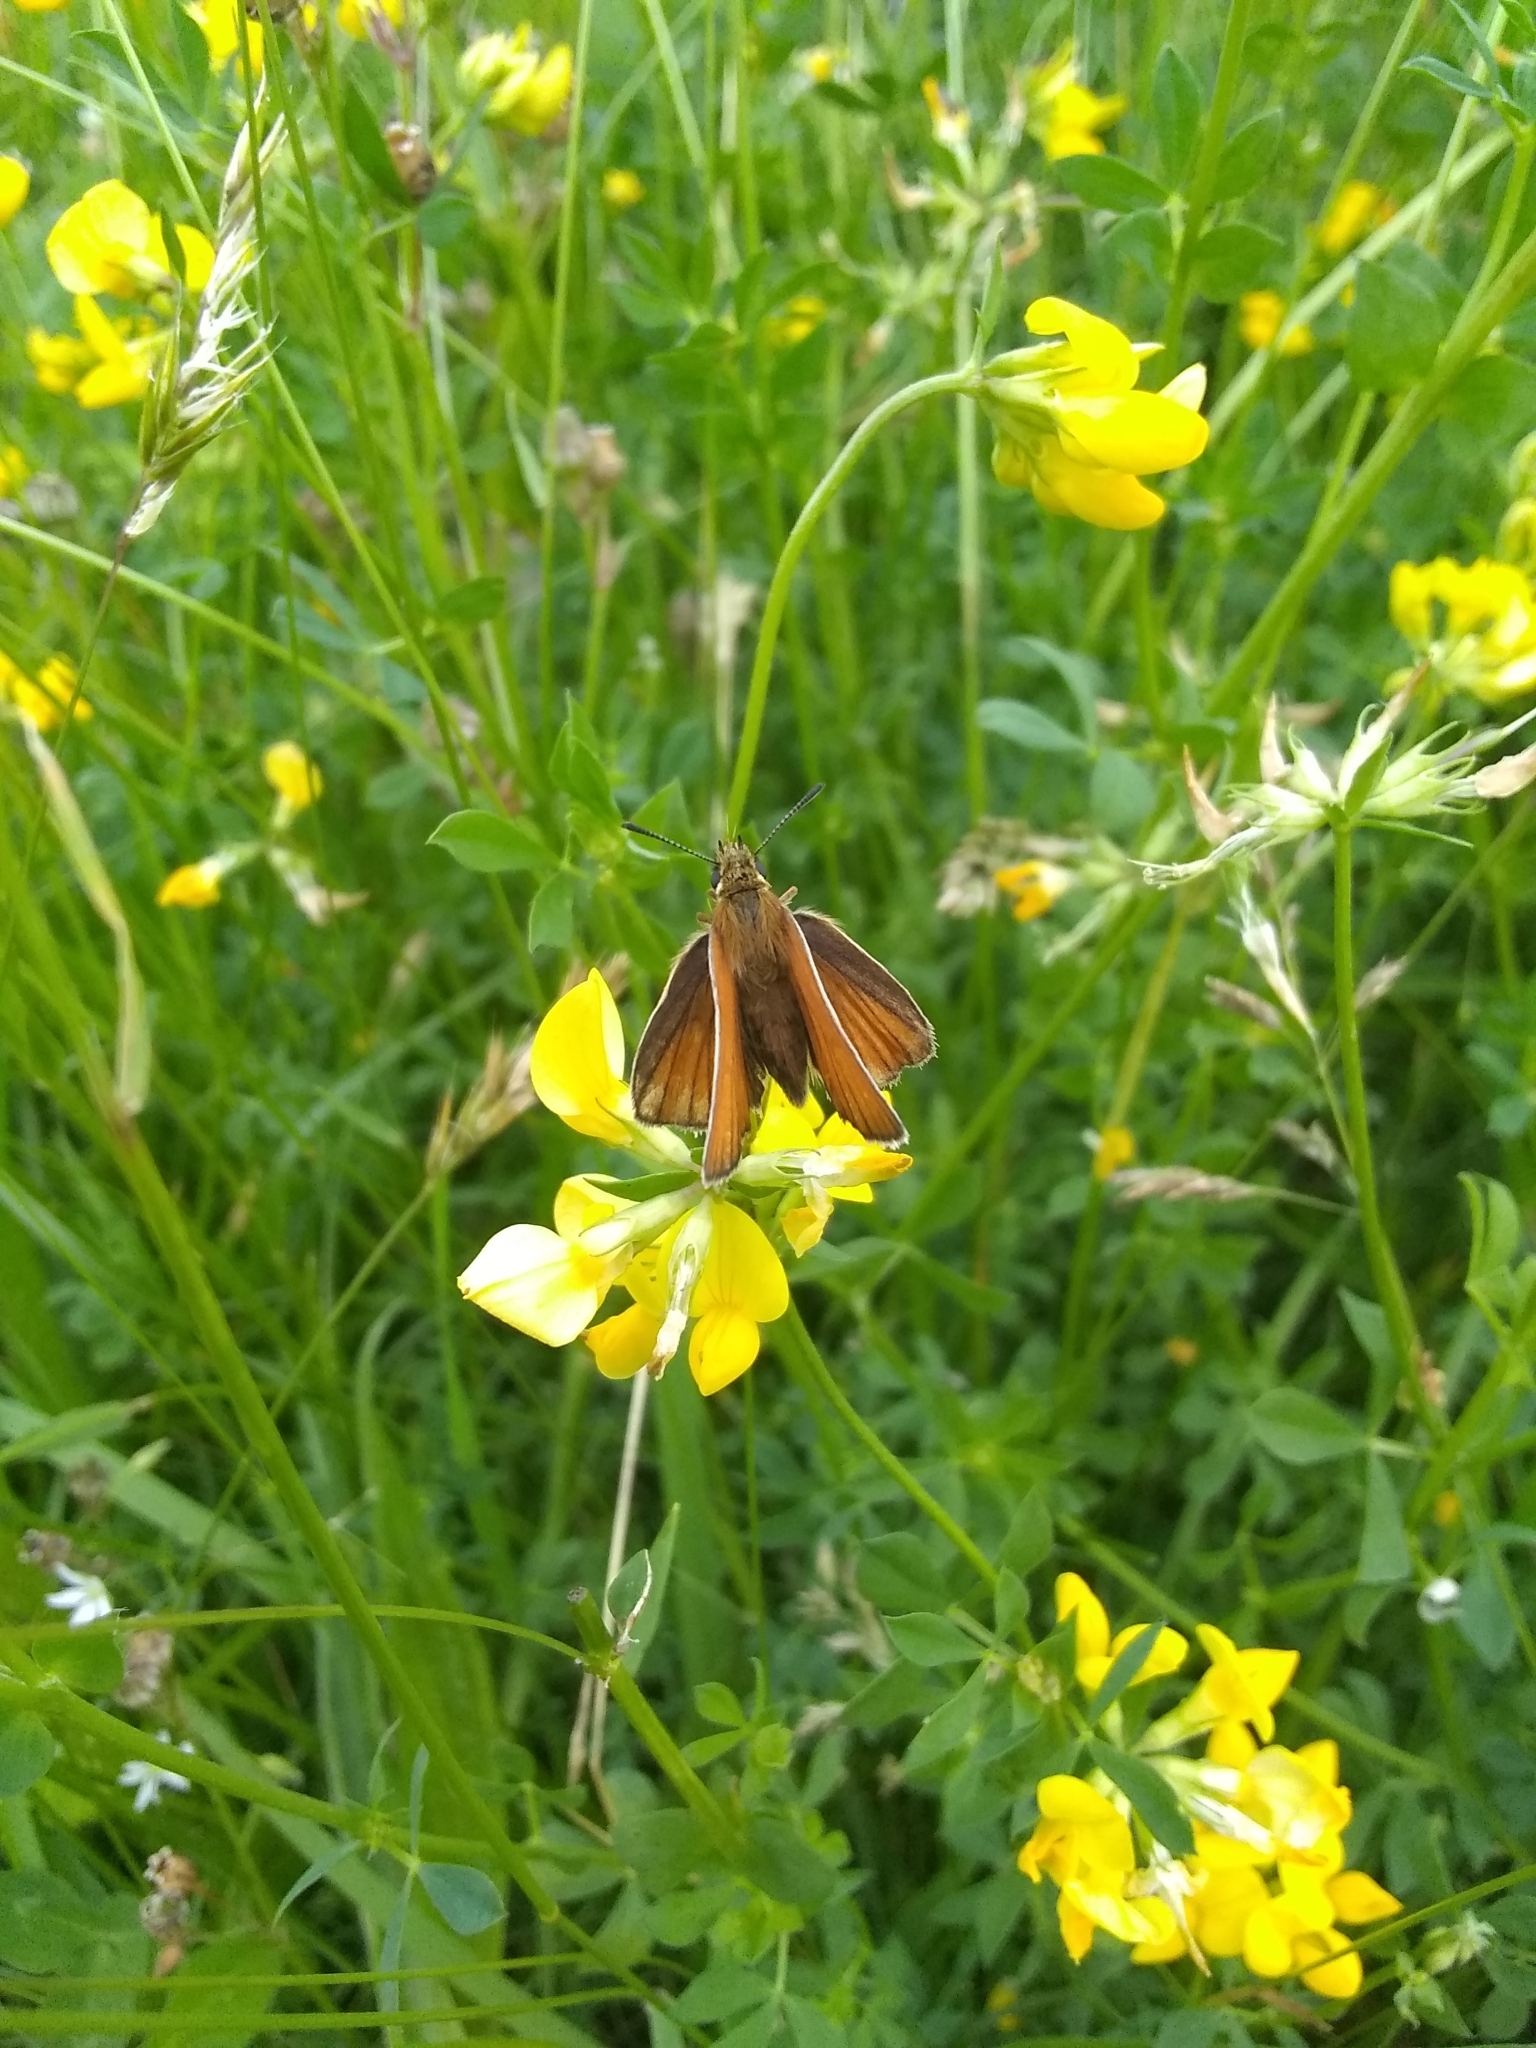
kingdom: Animalia
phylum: Arthropoda
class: Insecta
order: Lepidoptera
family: Hesperiidae
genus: Thymelicus
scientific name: Thymelicus lineola
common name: Essex skipper
